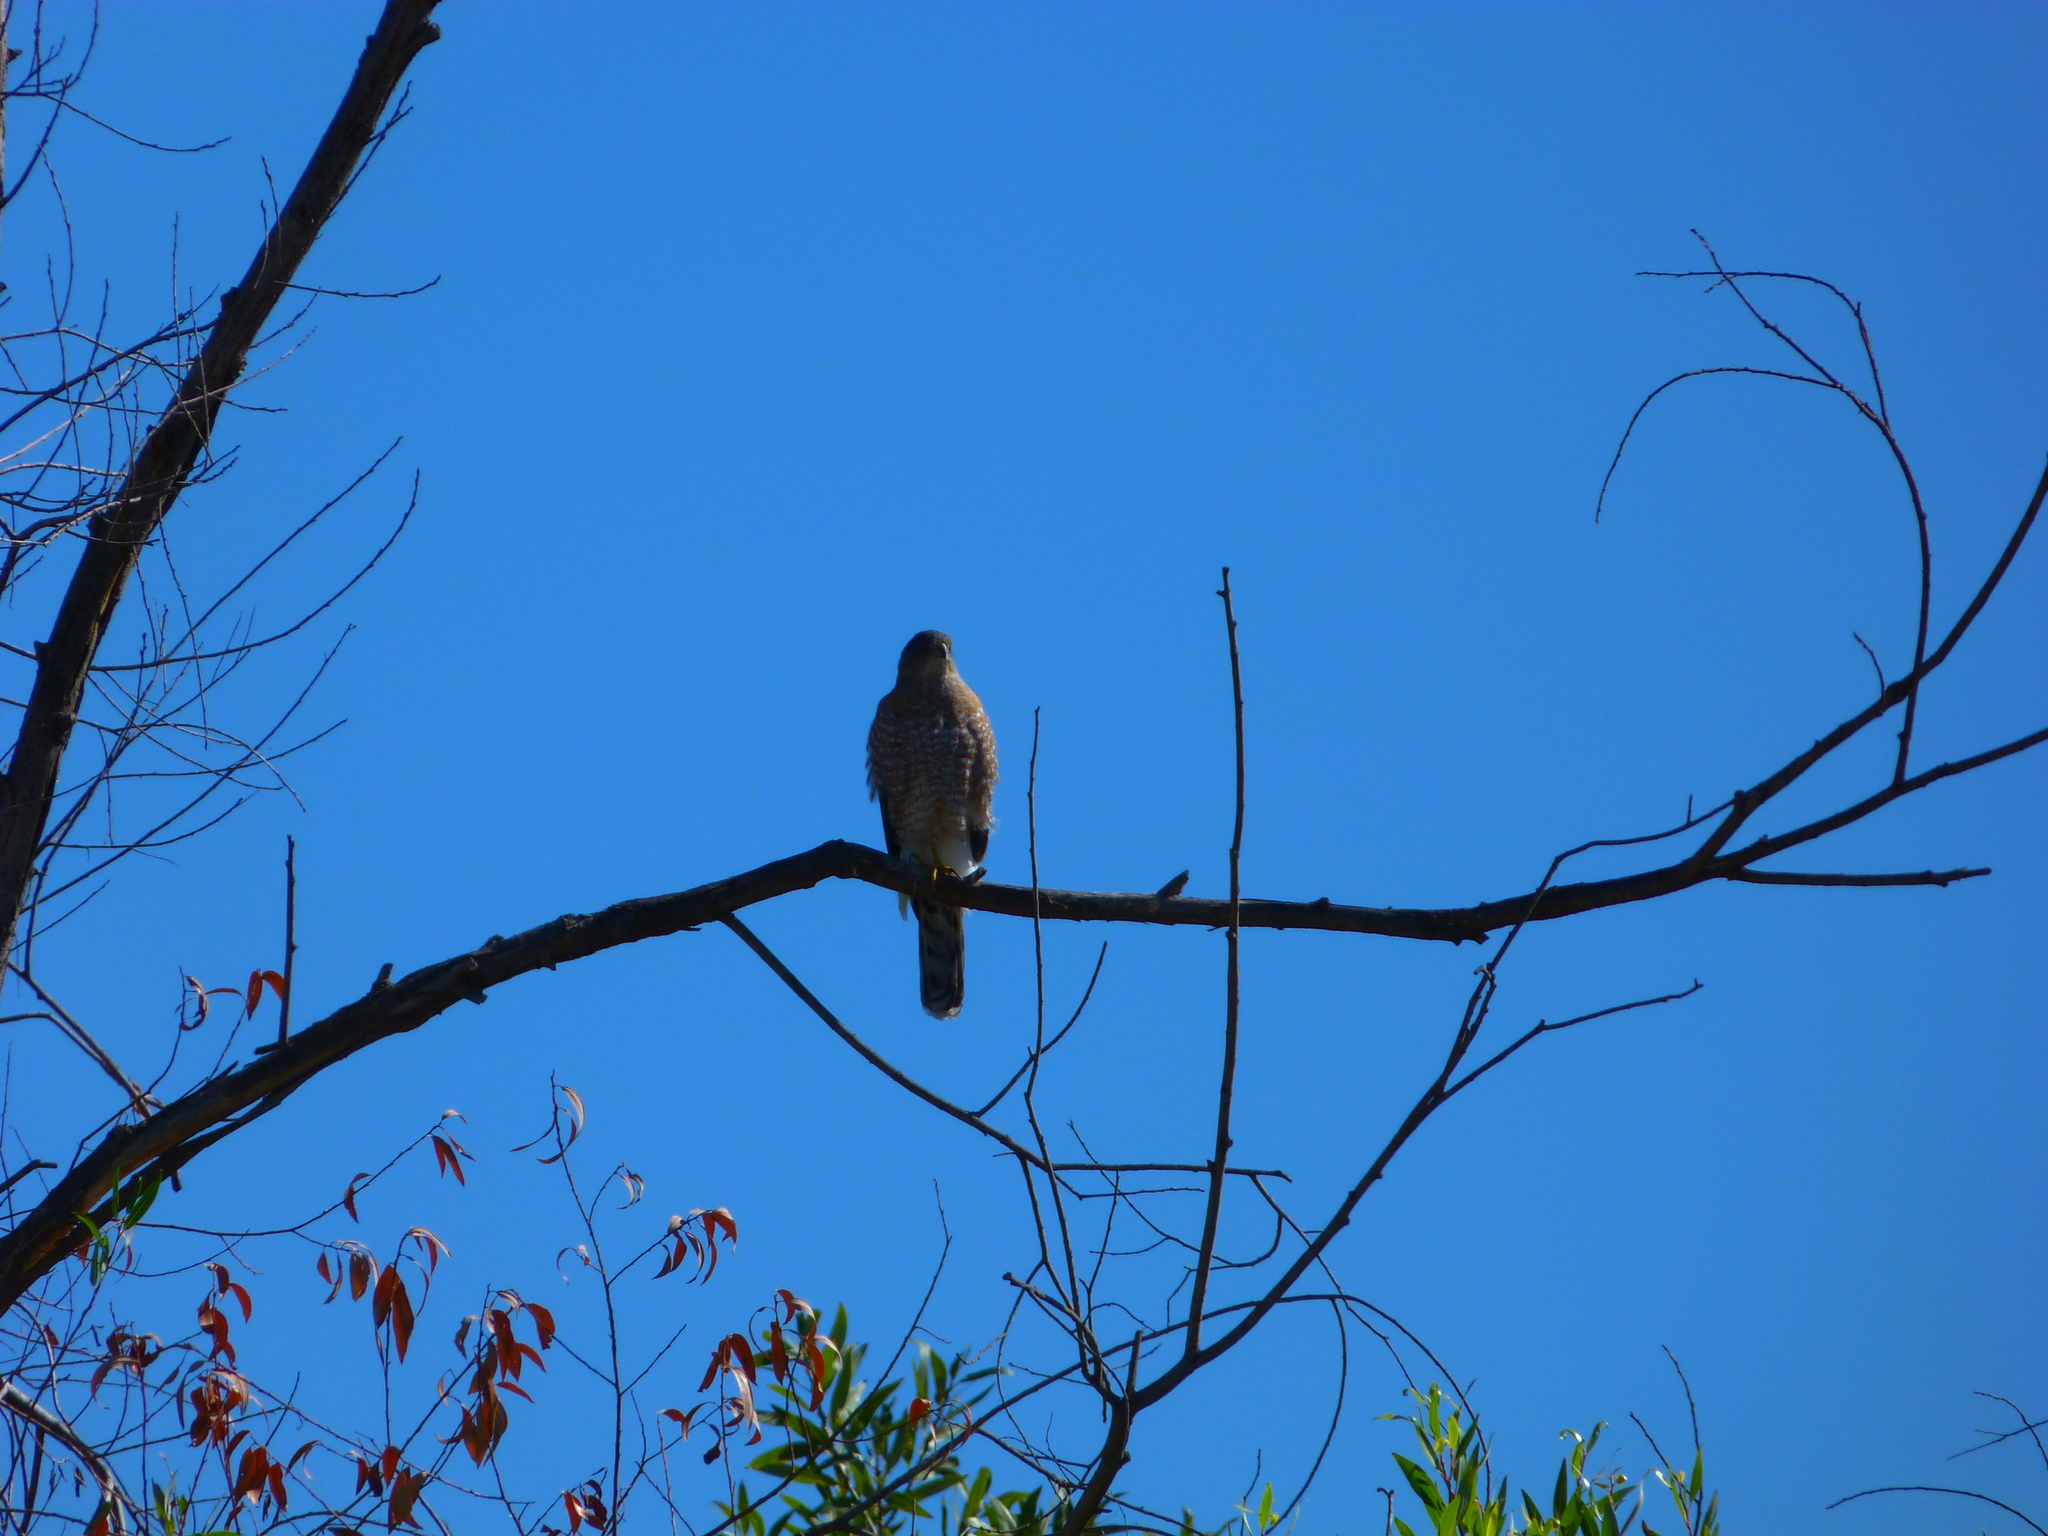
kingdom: Animalia
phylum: Chordata
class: Aves
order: Accipitriformes
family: Accipitridae
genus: Accipiter
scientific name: Accipiter cooperii
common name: Cooper's hawk
